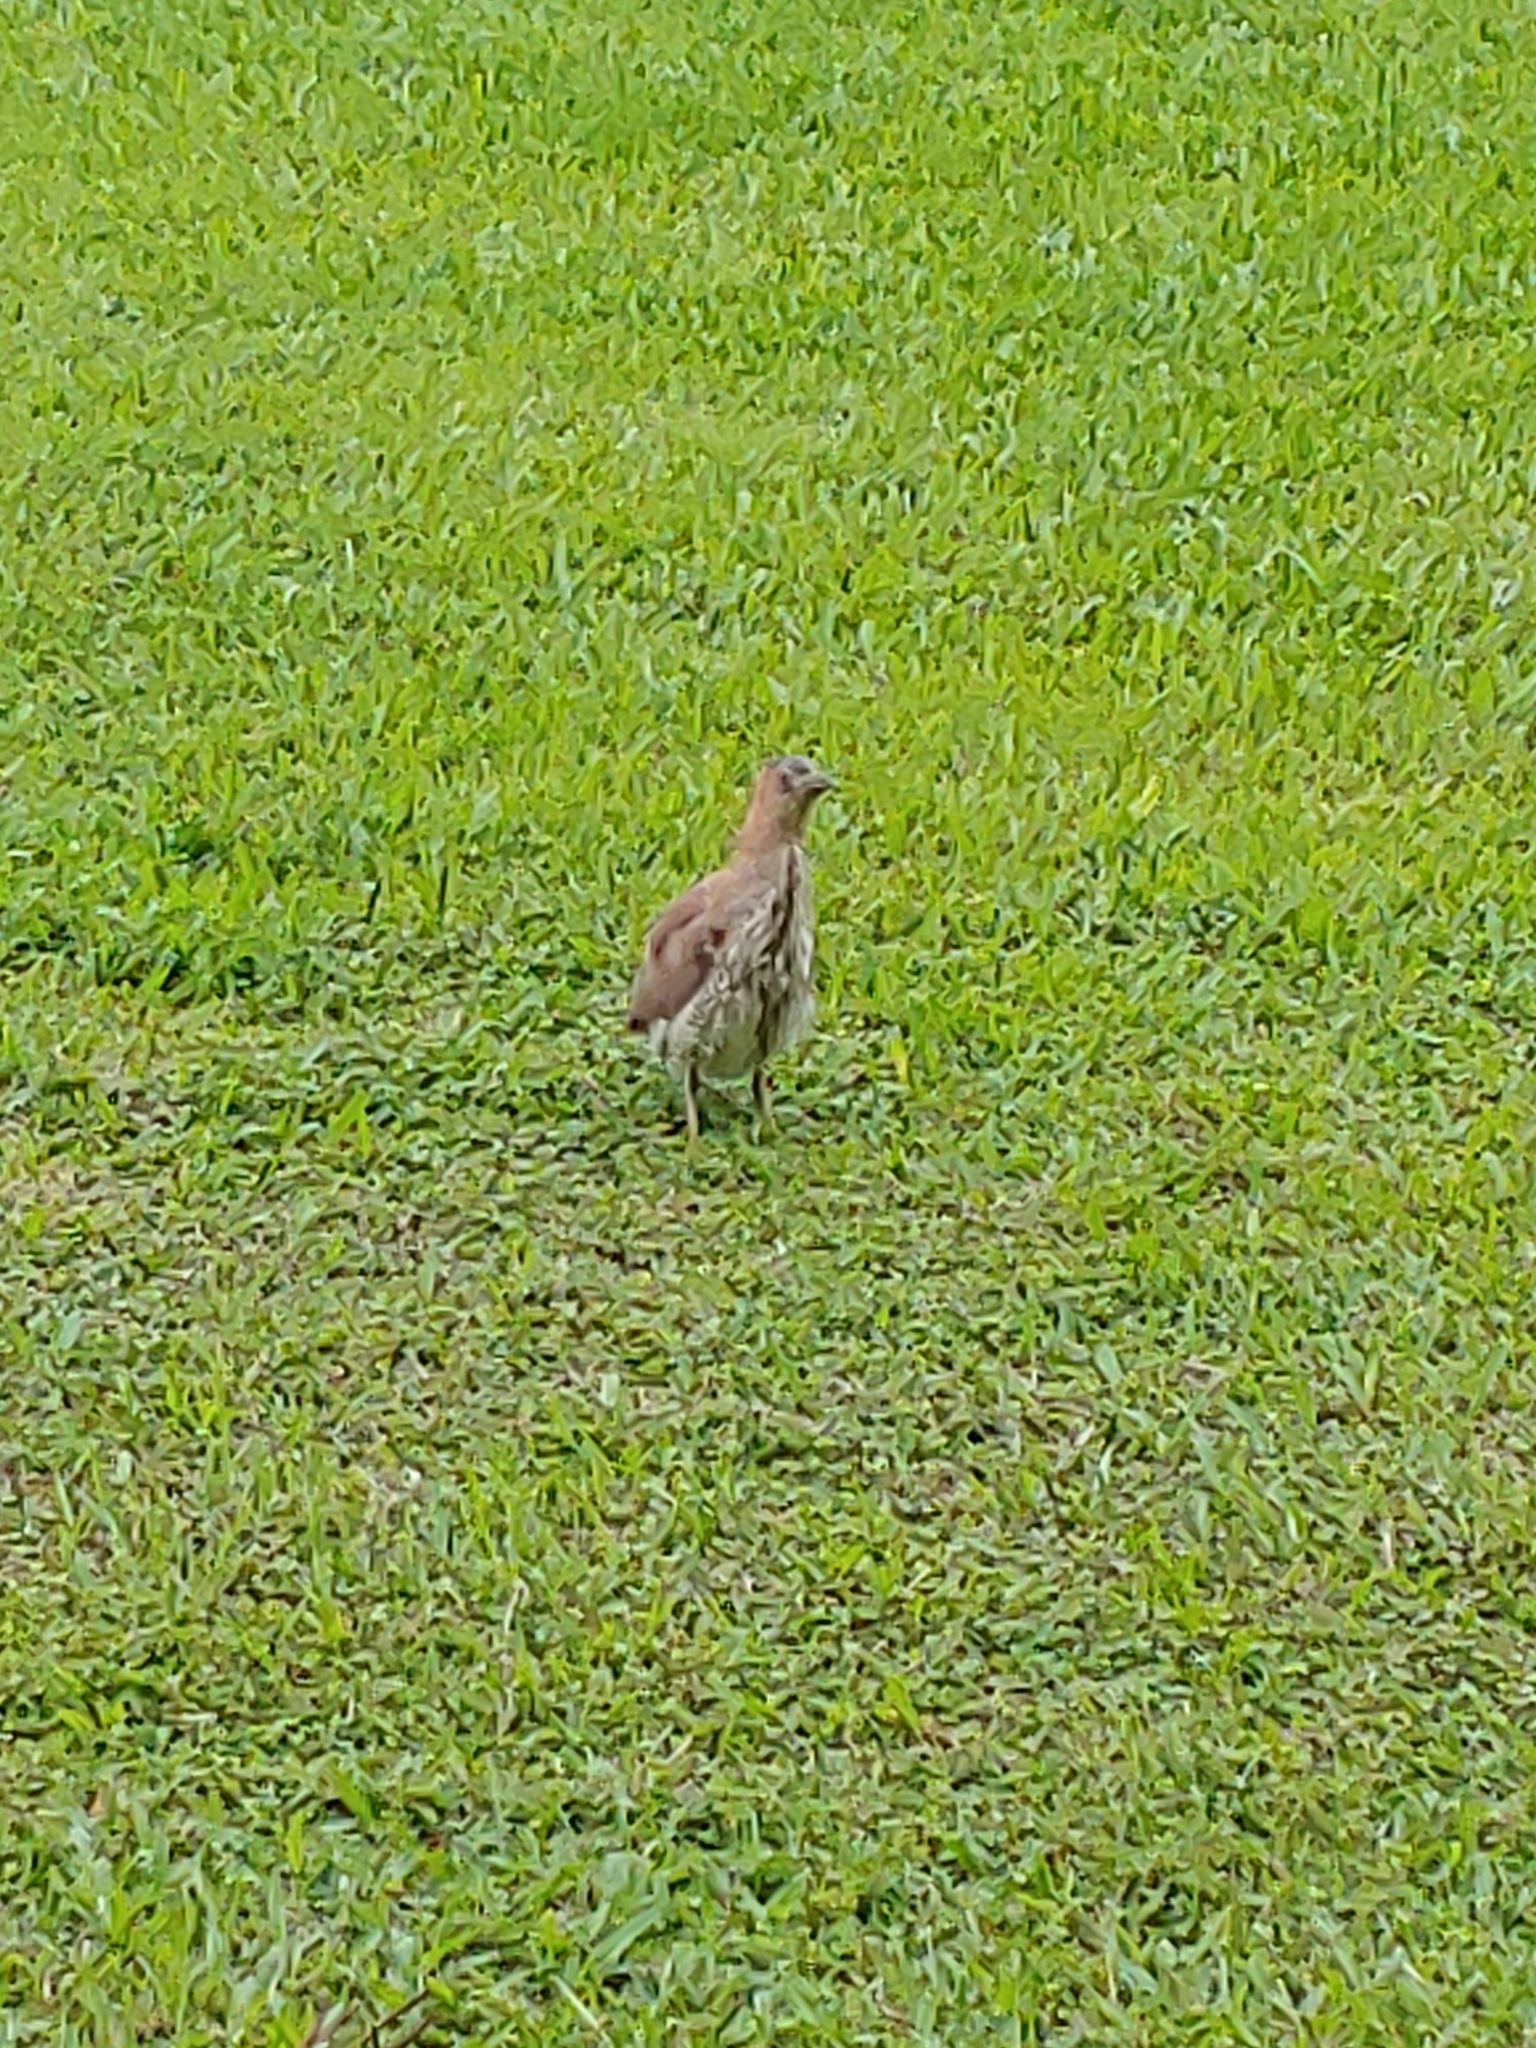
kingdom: Animalia
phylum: Chordata
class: Aves
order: Pelecaniformes
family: Ardeidae
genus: Gorsachius
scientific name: Gorsachius melanolophus
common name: Malayan night heron
